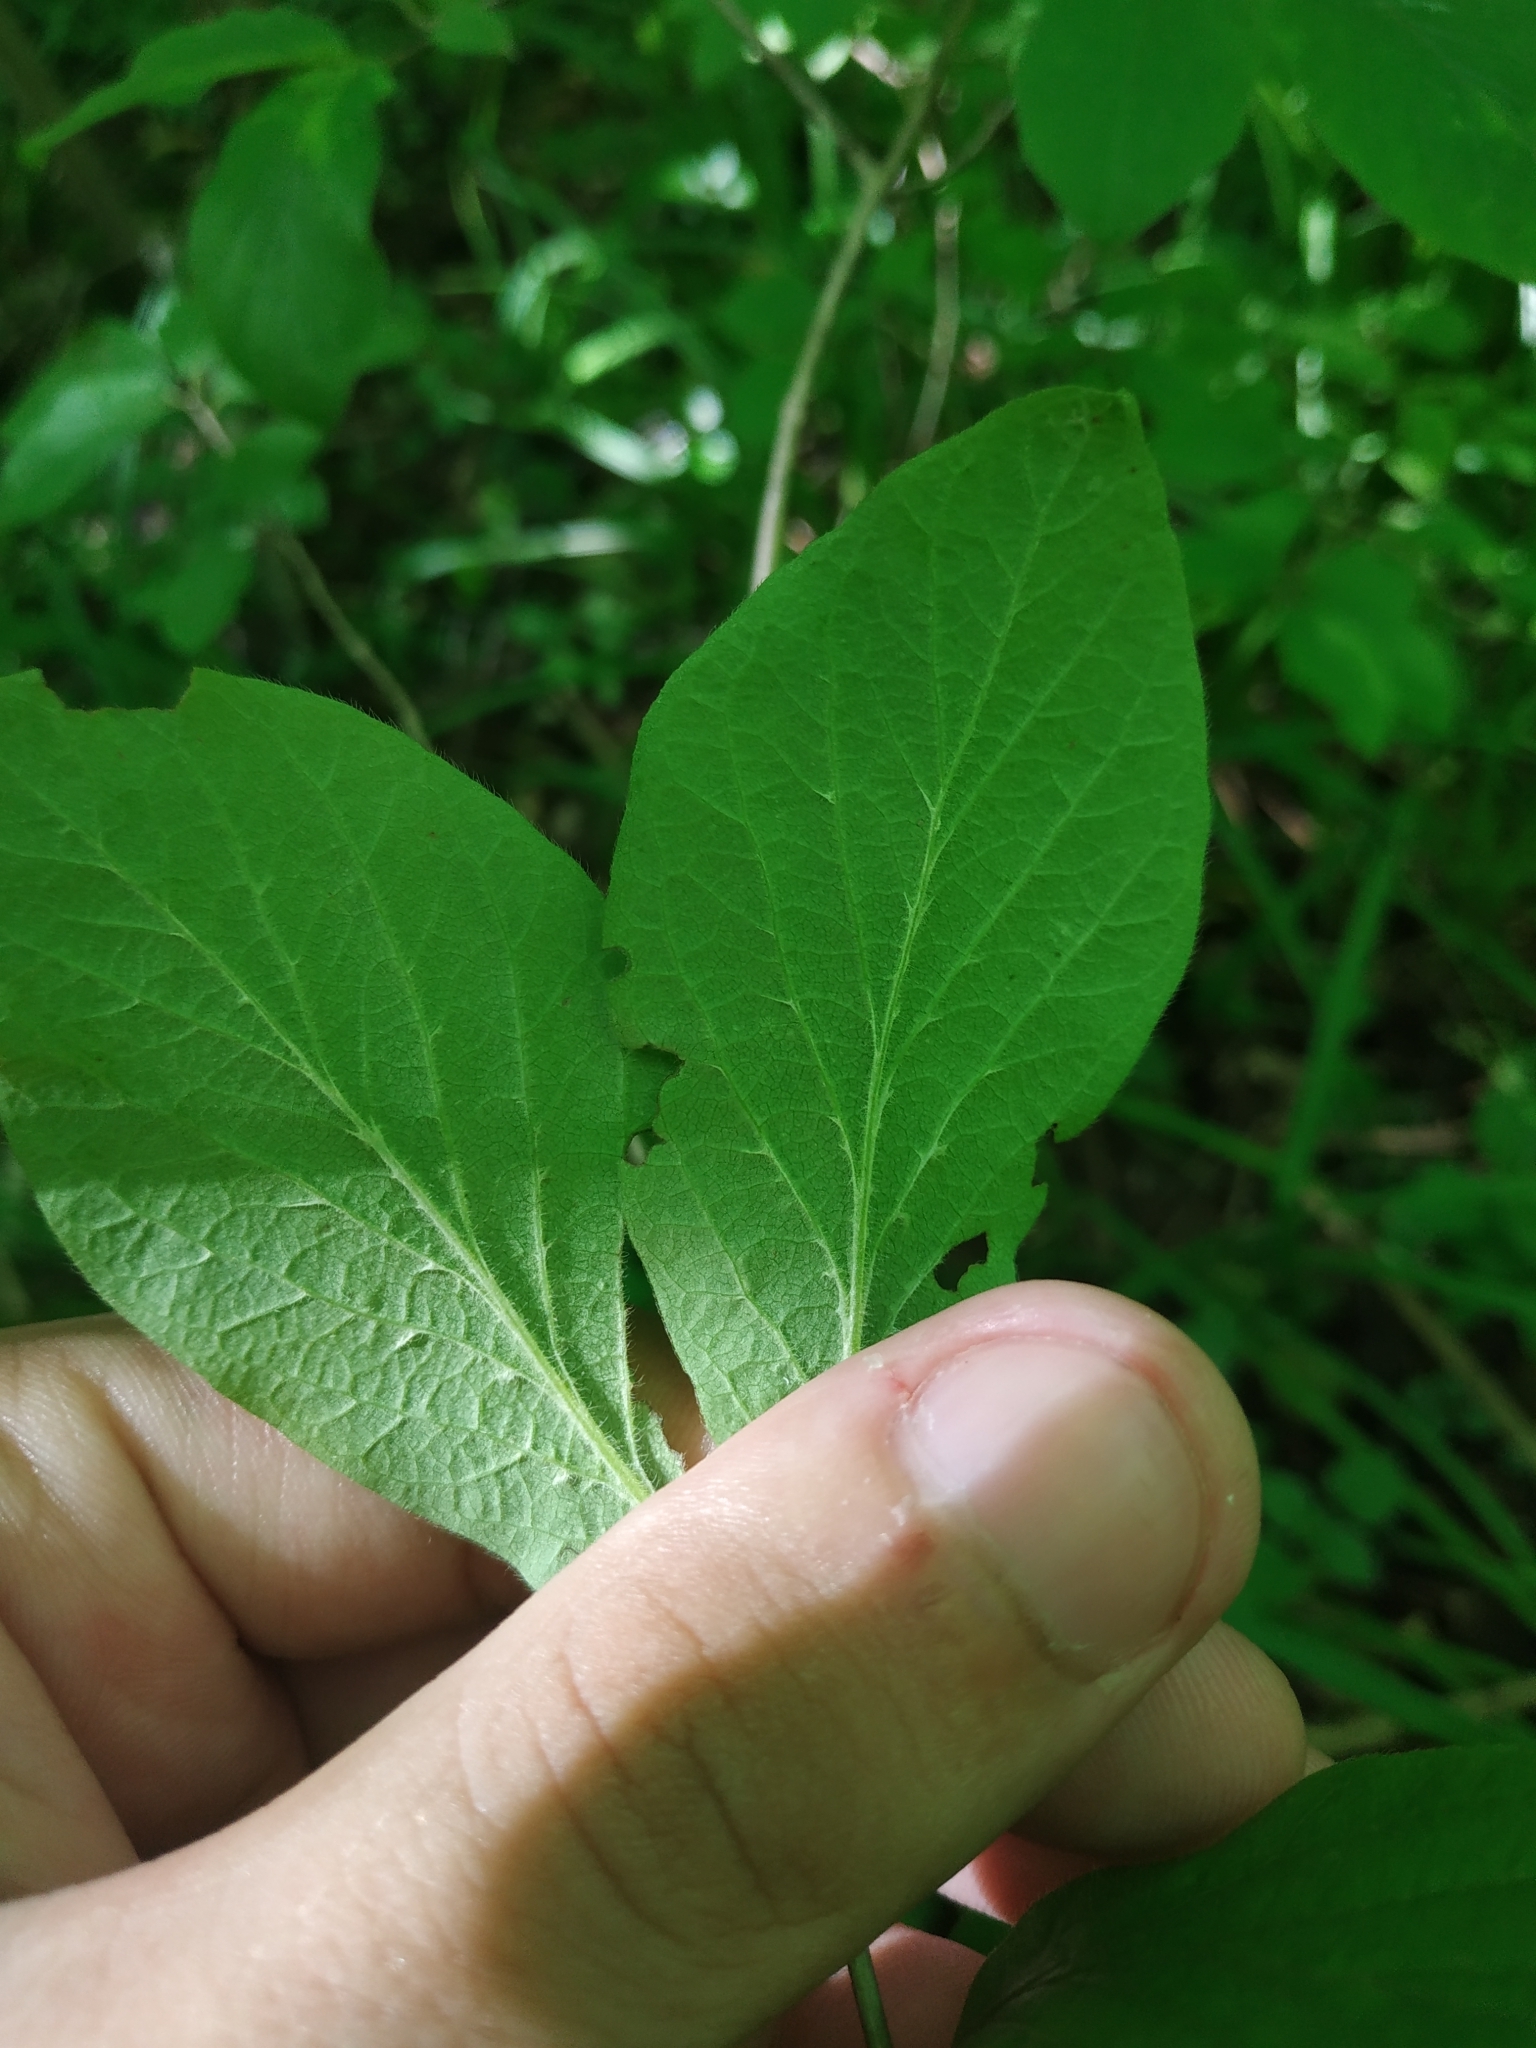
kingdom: Plantae
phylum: Tracheophyta
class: Magnoliopsida
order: Dipsacales
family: Caprifoliaceae
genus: Lonicera
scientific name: Lonicera xylosteum
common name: Fly honeysuckle
